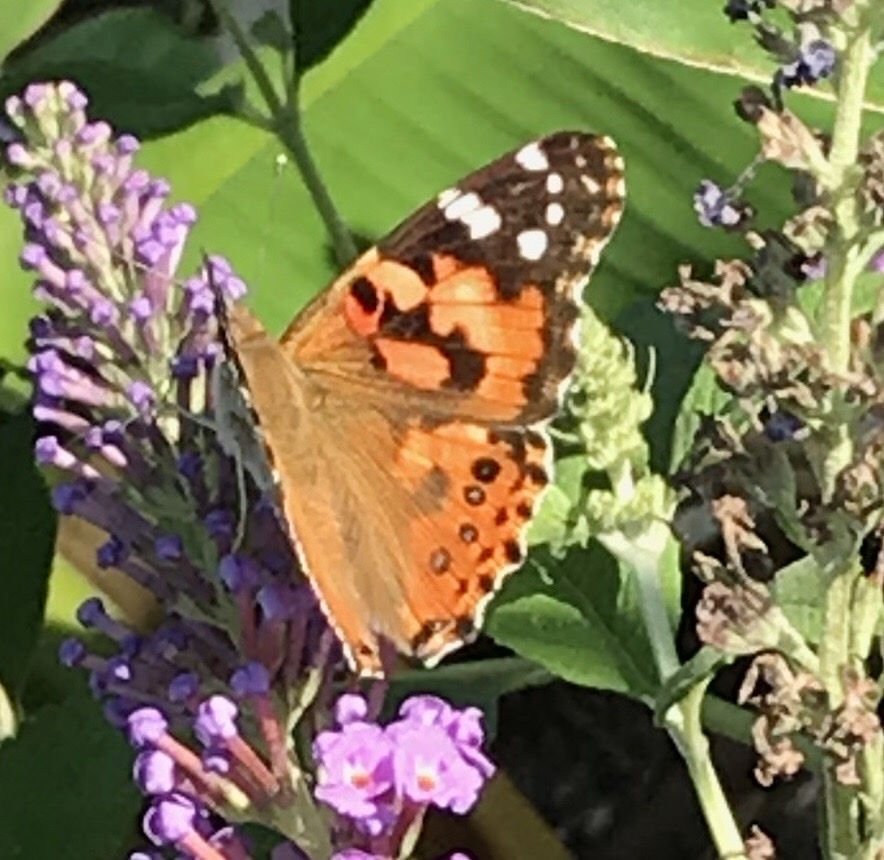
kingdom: Animalia
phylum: Arthropoda
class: Insecta
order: Lepidoptera
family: Nymphalidae
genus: Vanessa
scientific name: Vanessa cardui
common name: Painted lady
